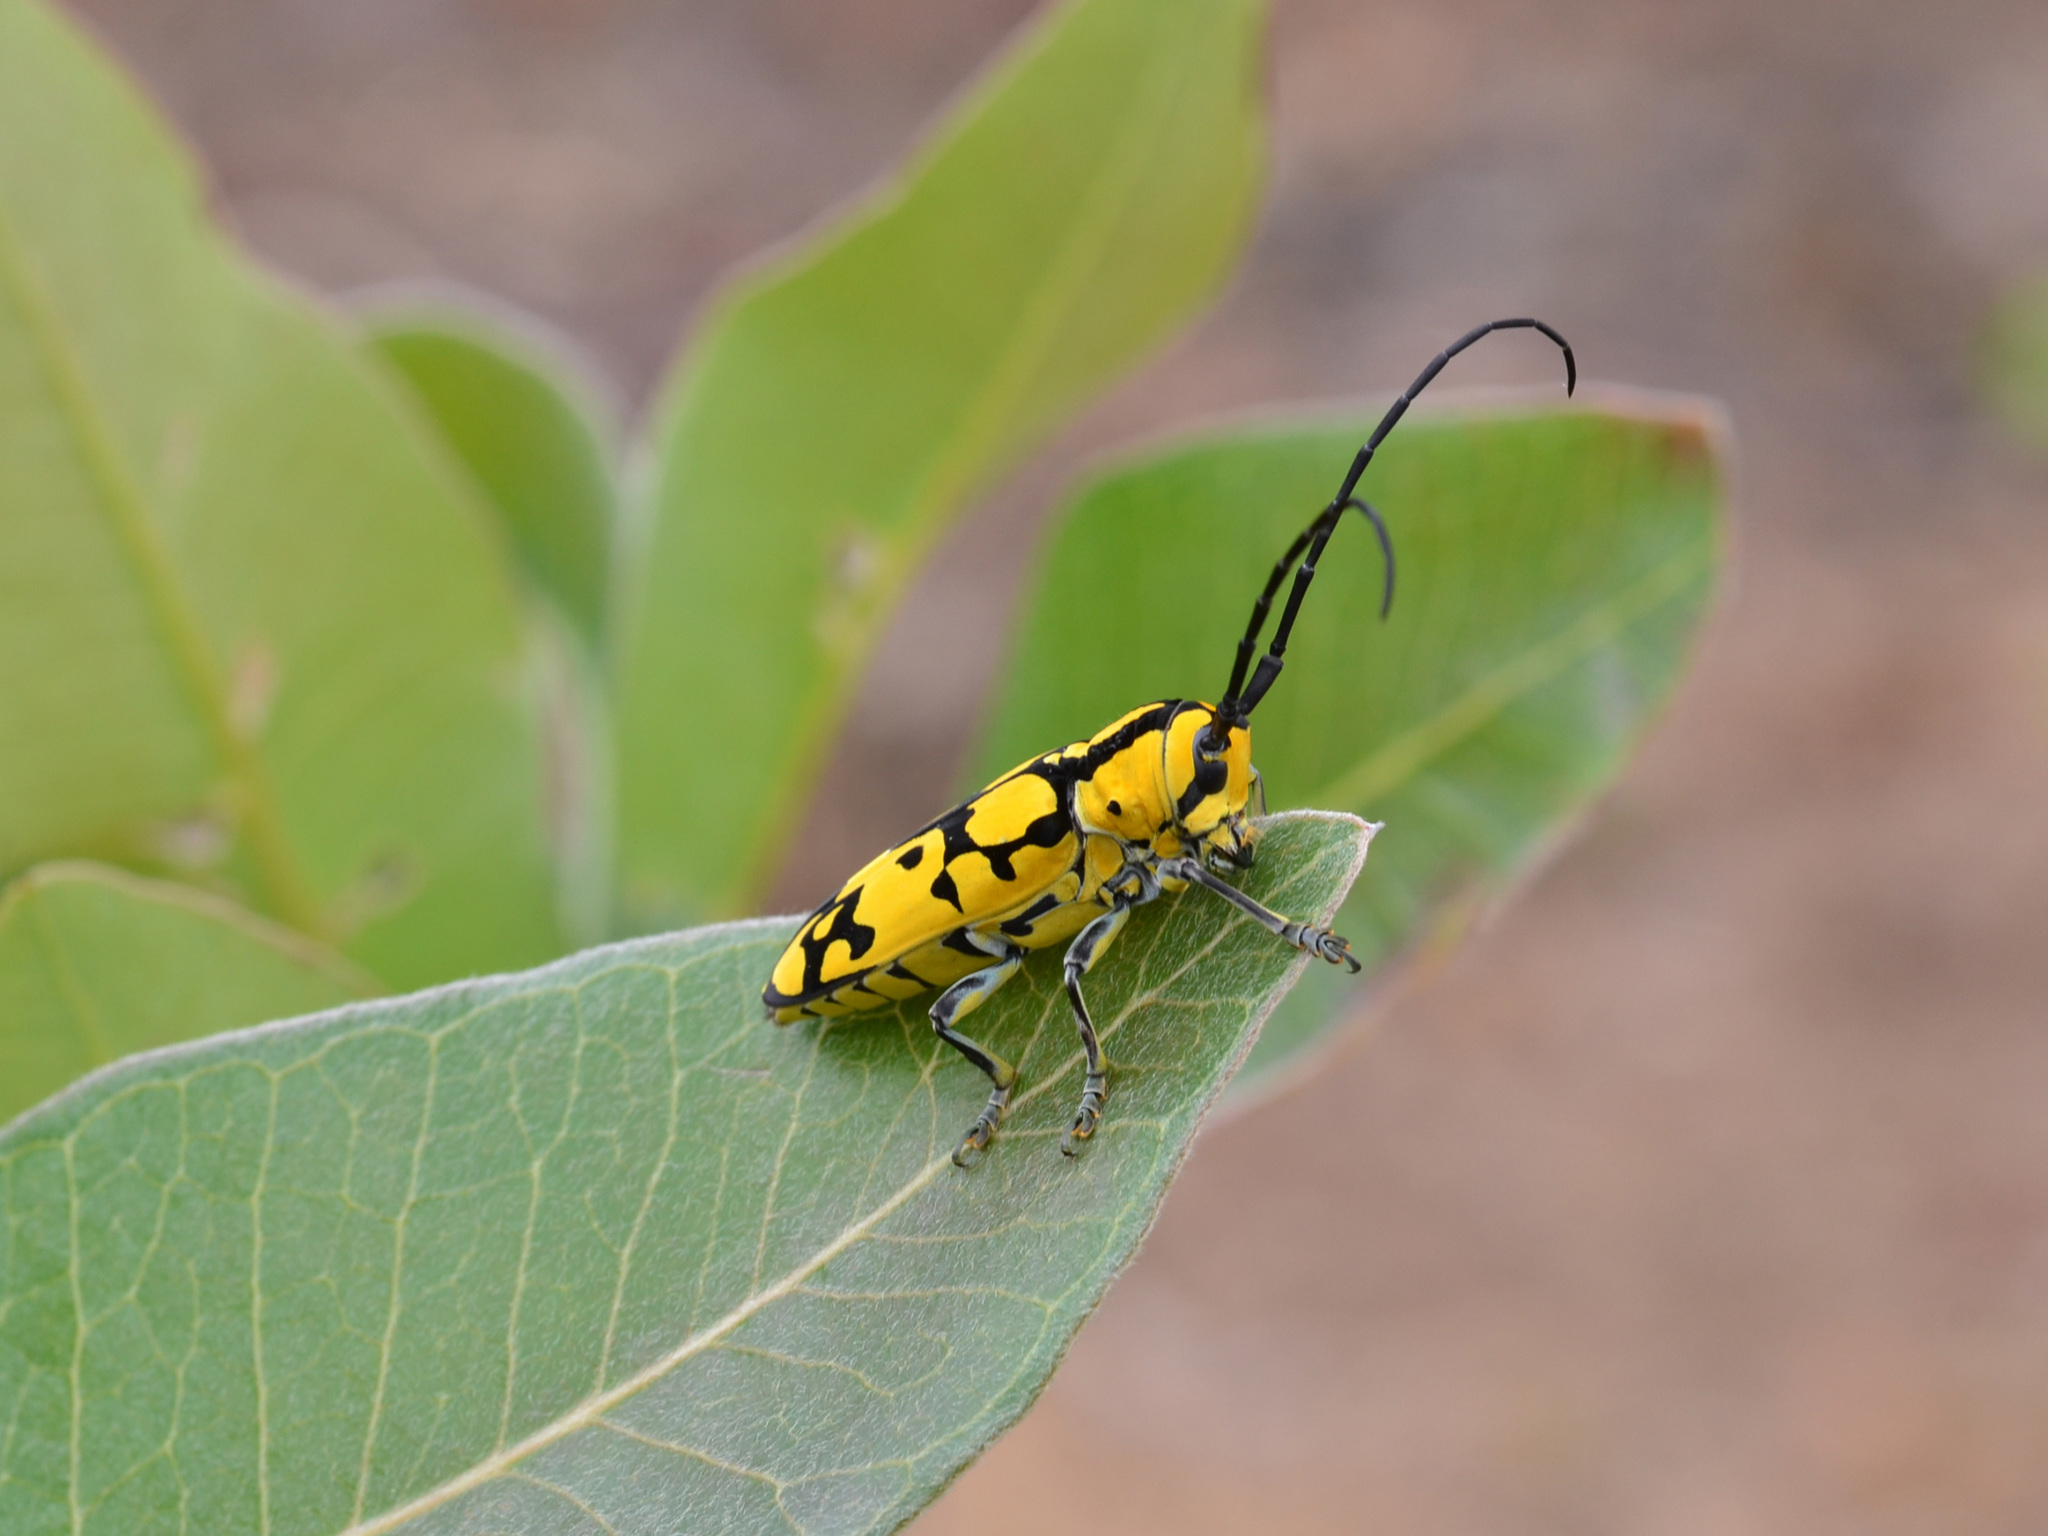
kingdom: Animalia
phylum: Arthropoda
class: Insecta
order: Coleoptera
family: Cerambycidae
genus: Tragocephala
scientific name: Tragocephala variegata
